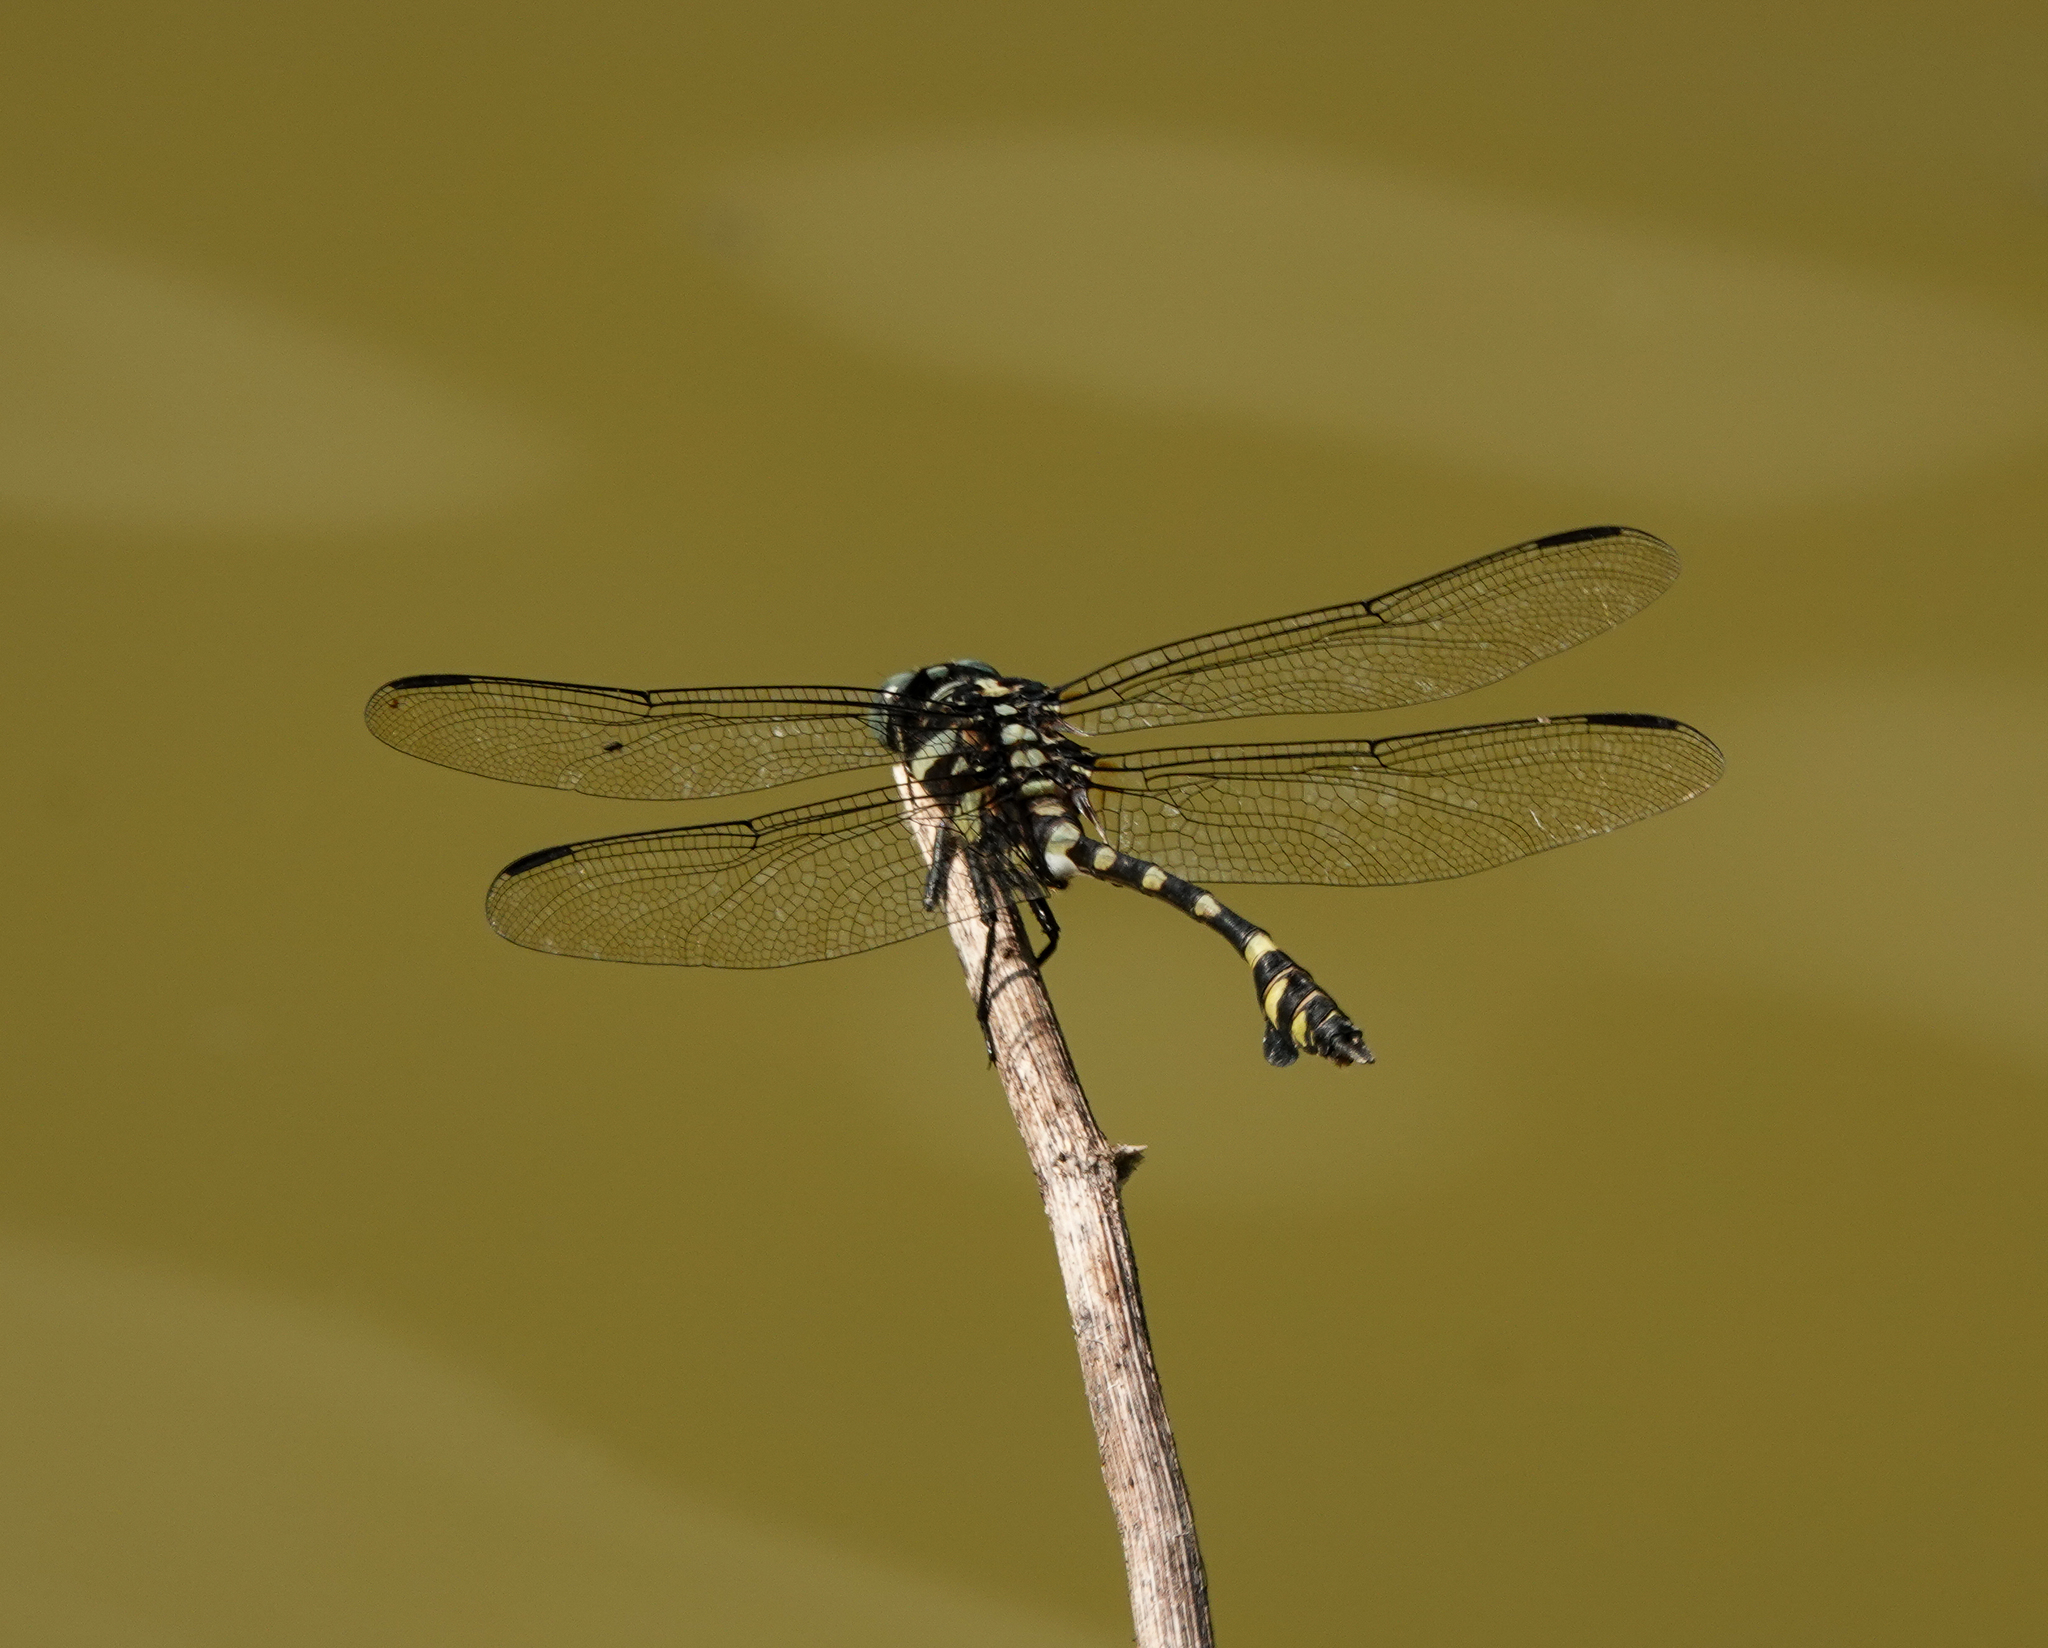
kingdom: Animalia
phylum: Arthropoda
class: Insecta
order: Odonata
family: Gomphidae
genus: Ictinogomphus
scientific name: Ictinogomphus decoratus
